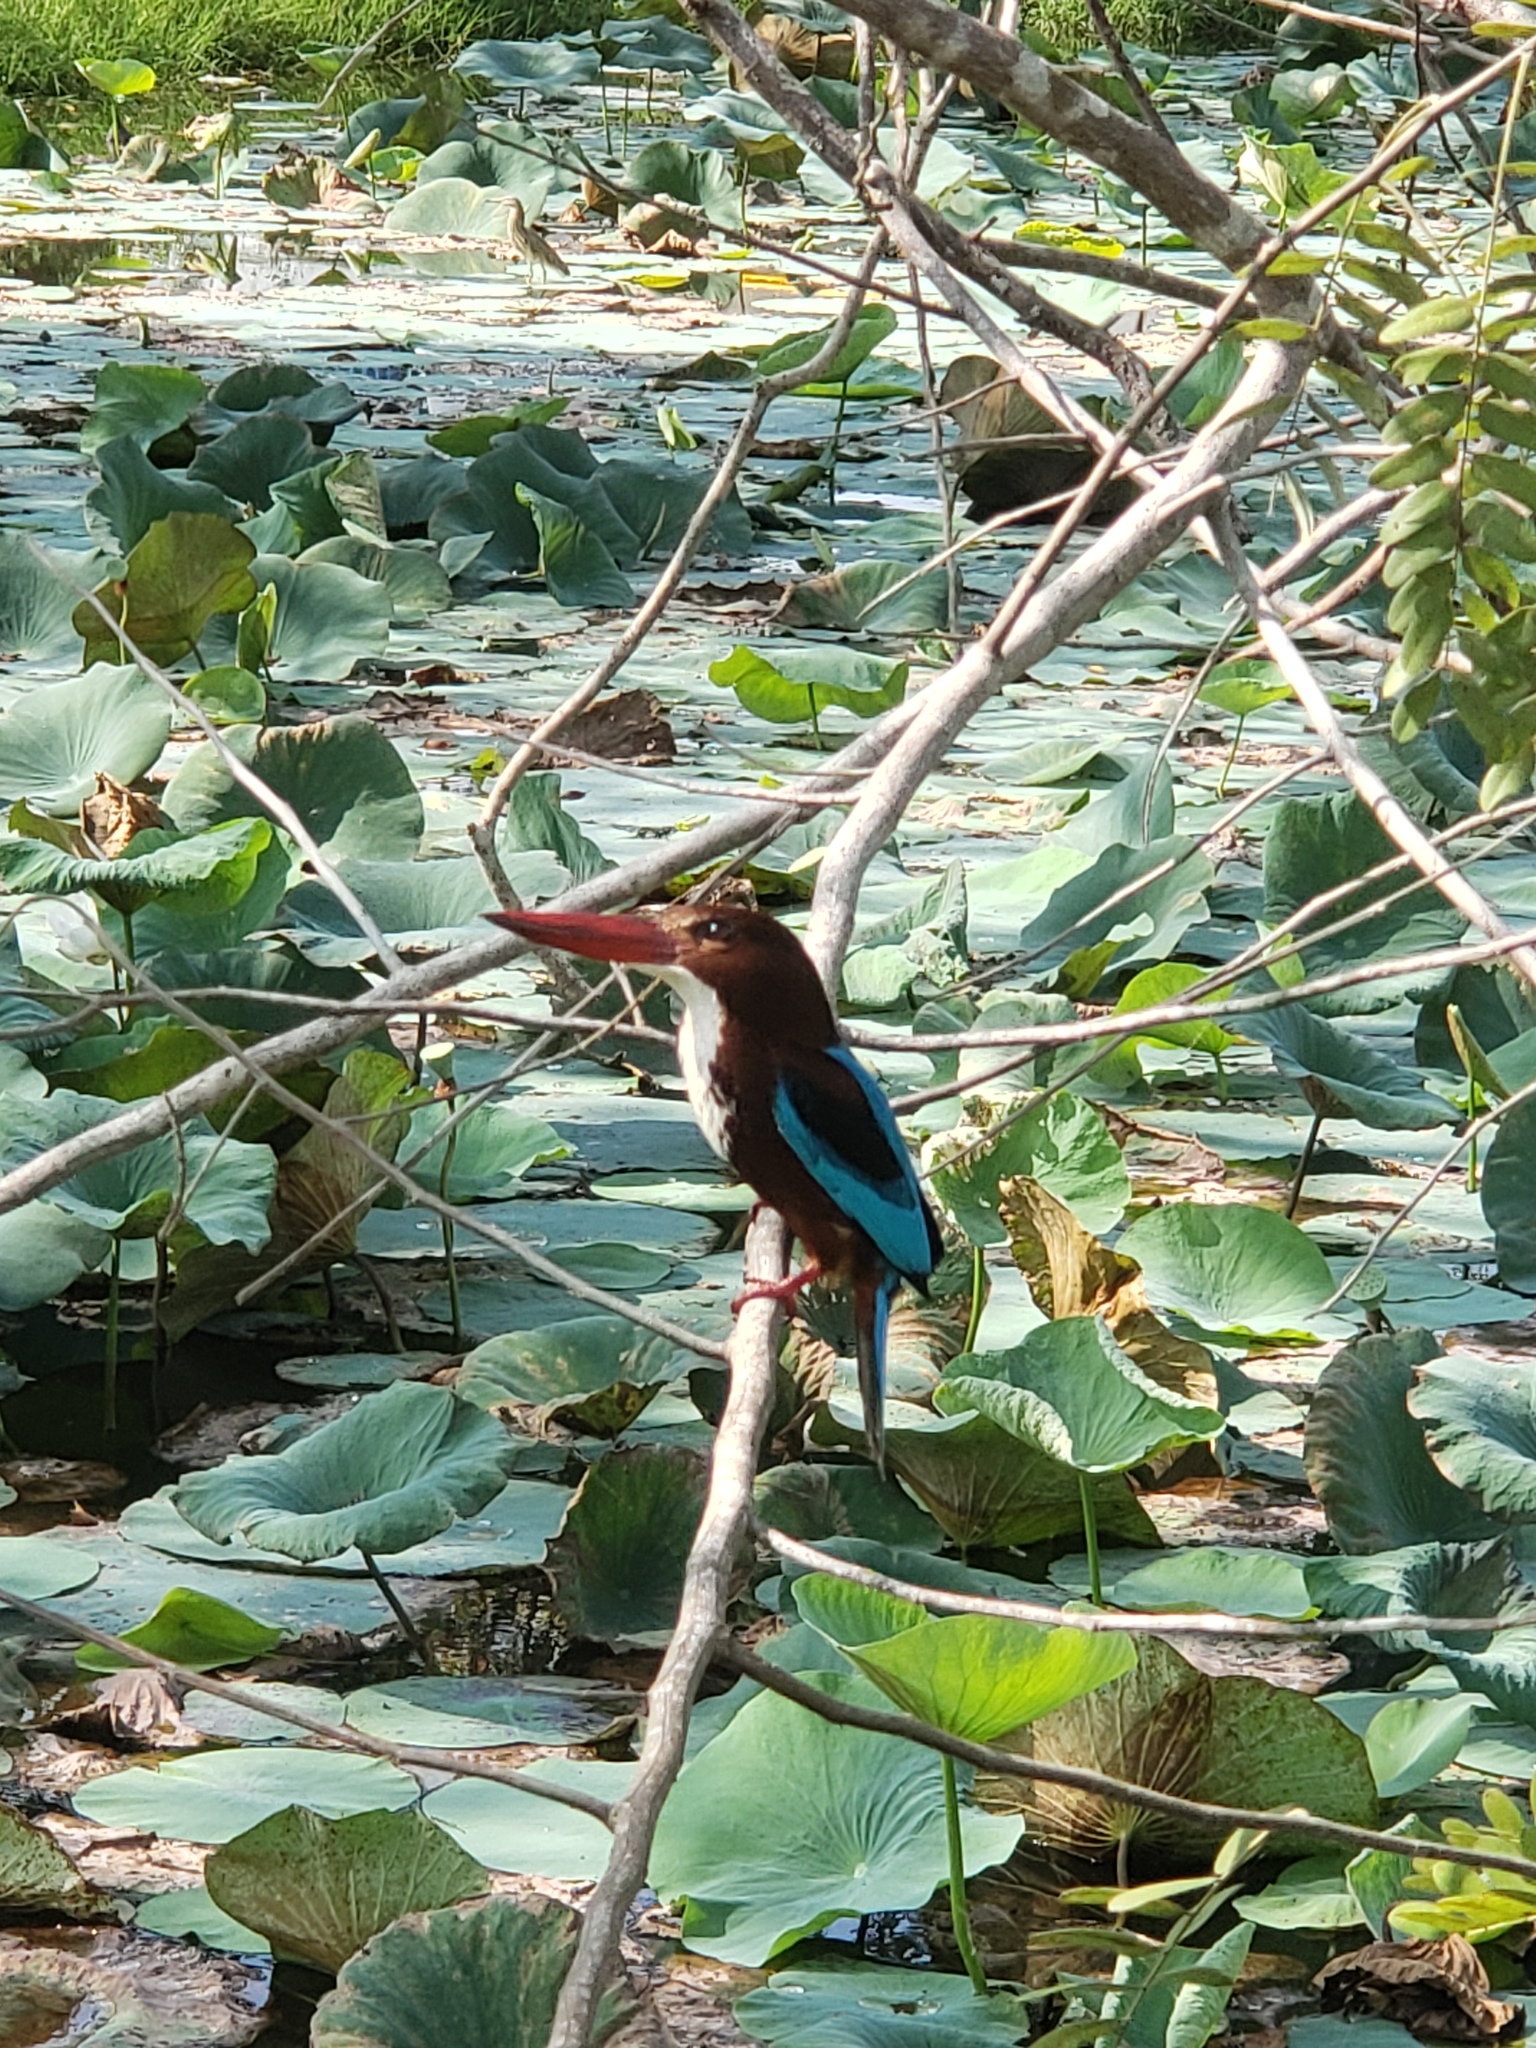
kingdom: Animalia
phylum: Chordata
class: Aves
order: Coraciiformes
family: Alcedinidae
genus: Halcyon
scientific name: Halcyon smyrnensis
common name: White-throated kingfisher
